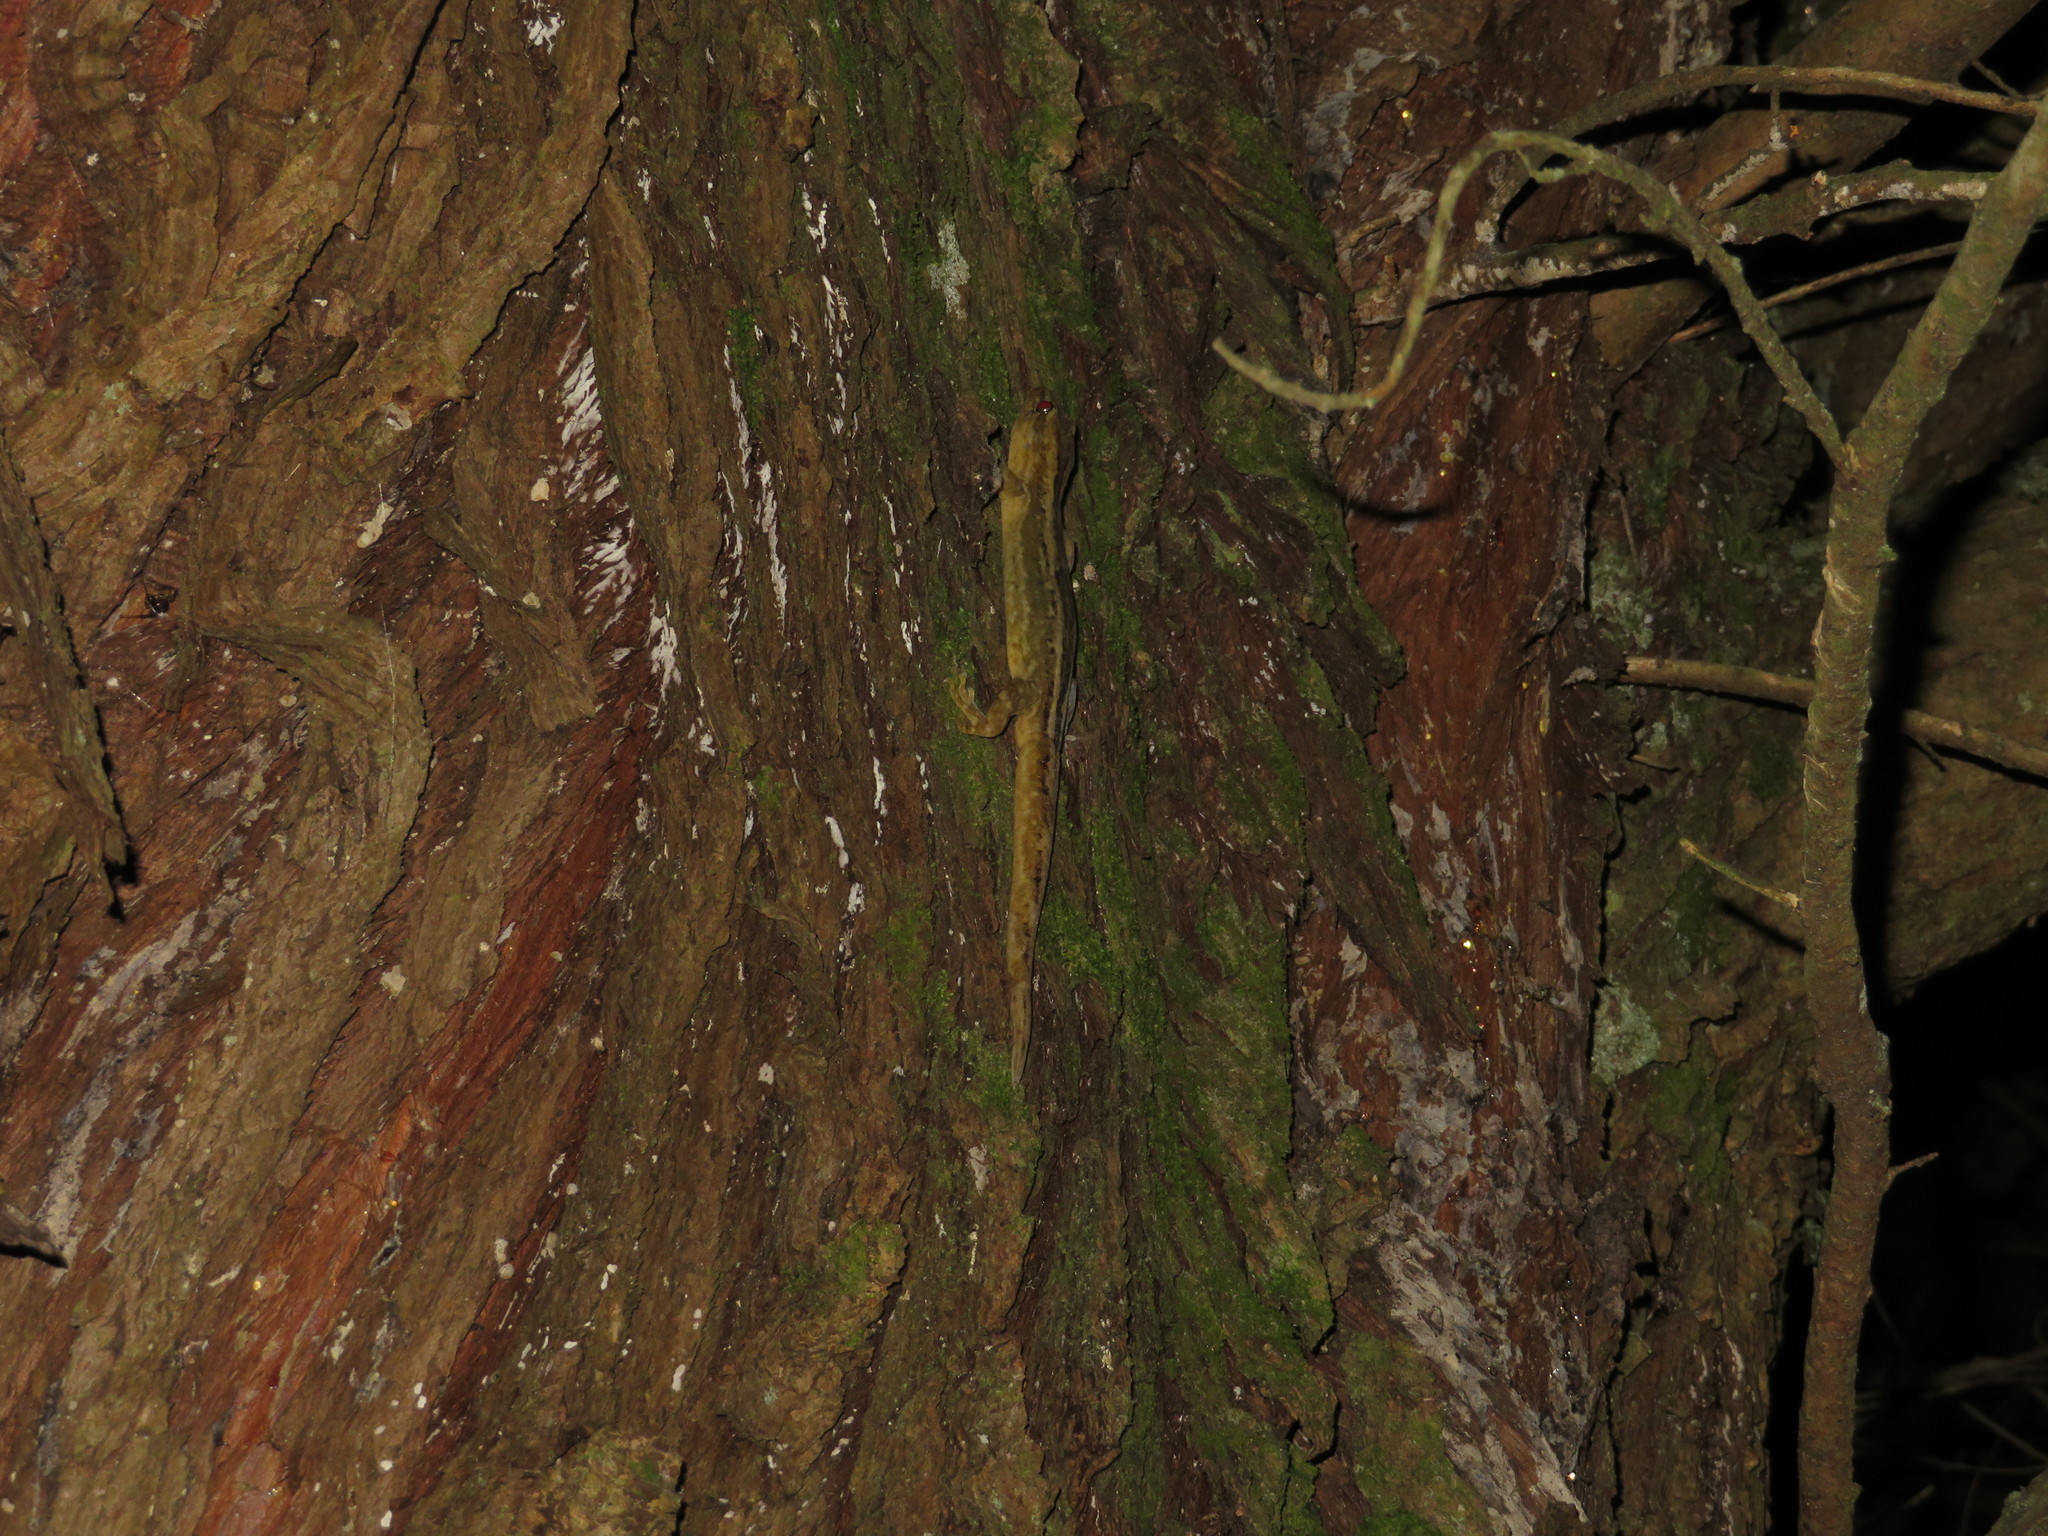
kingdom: Animalia
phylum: Chordata
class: Squamata
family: Diplodactylidae
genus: Woodworthia
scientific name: Woodworthia maculata
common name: Raukawa gecko
